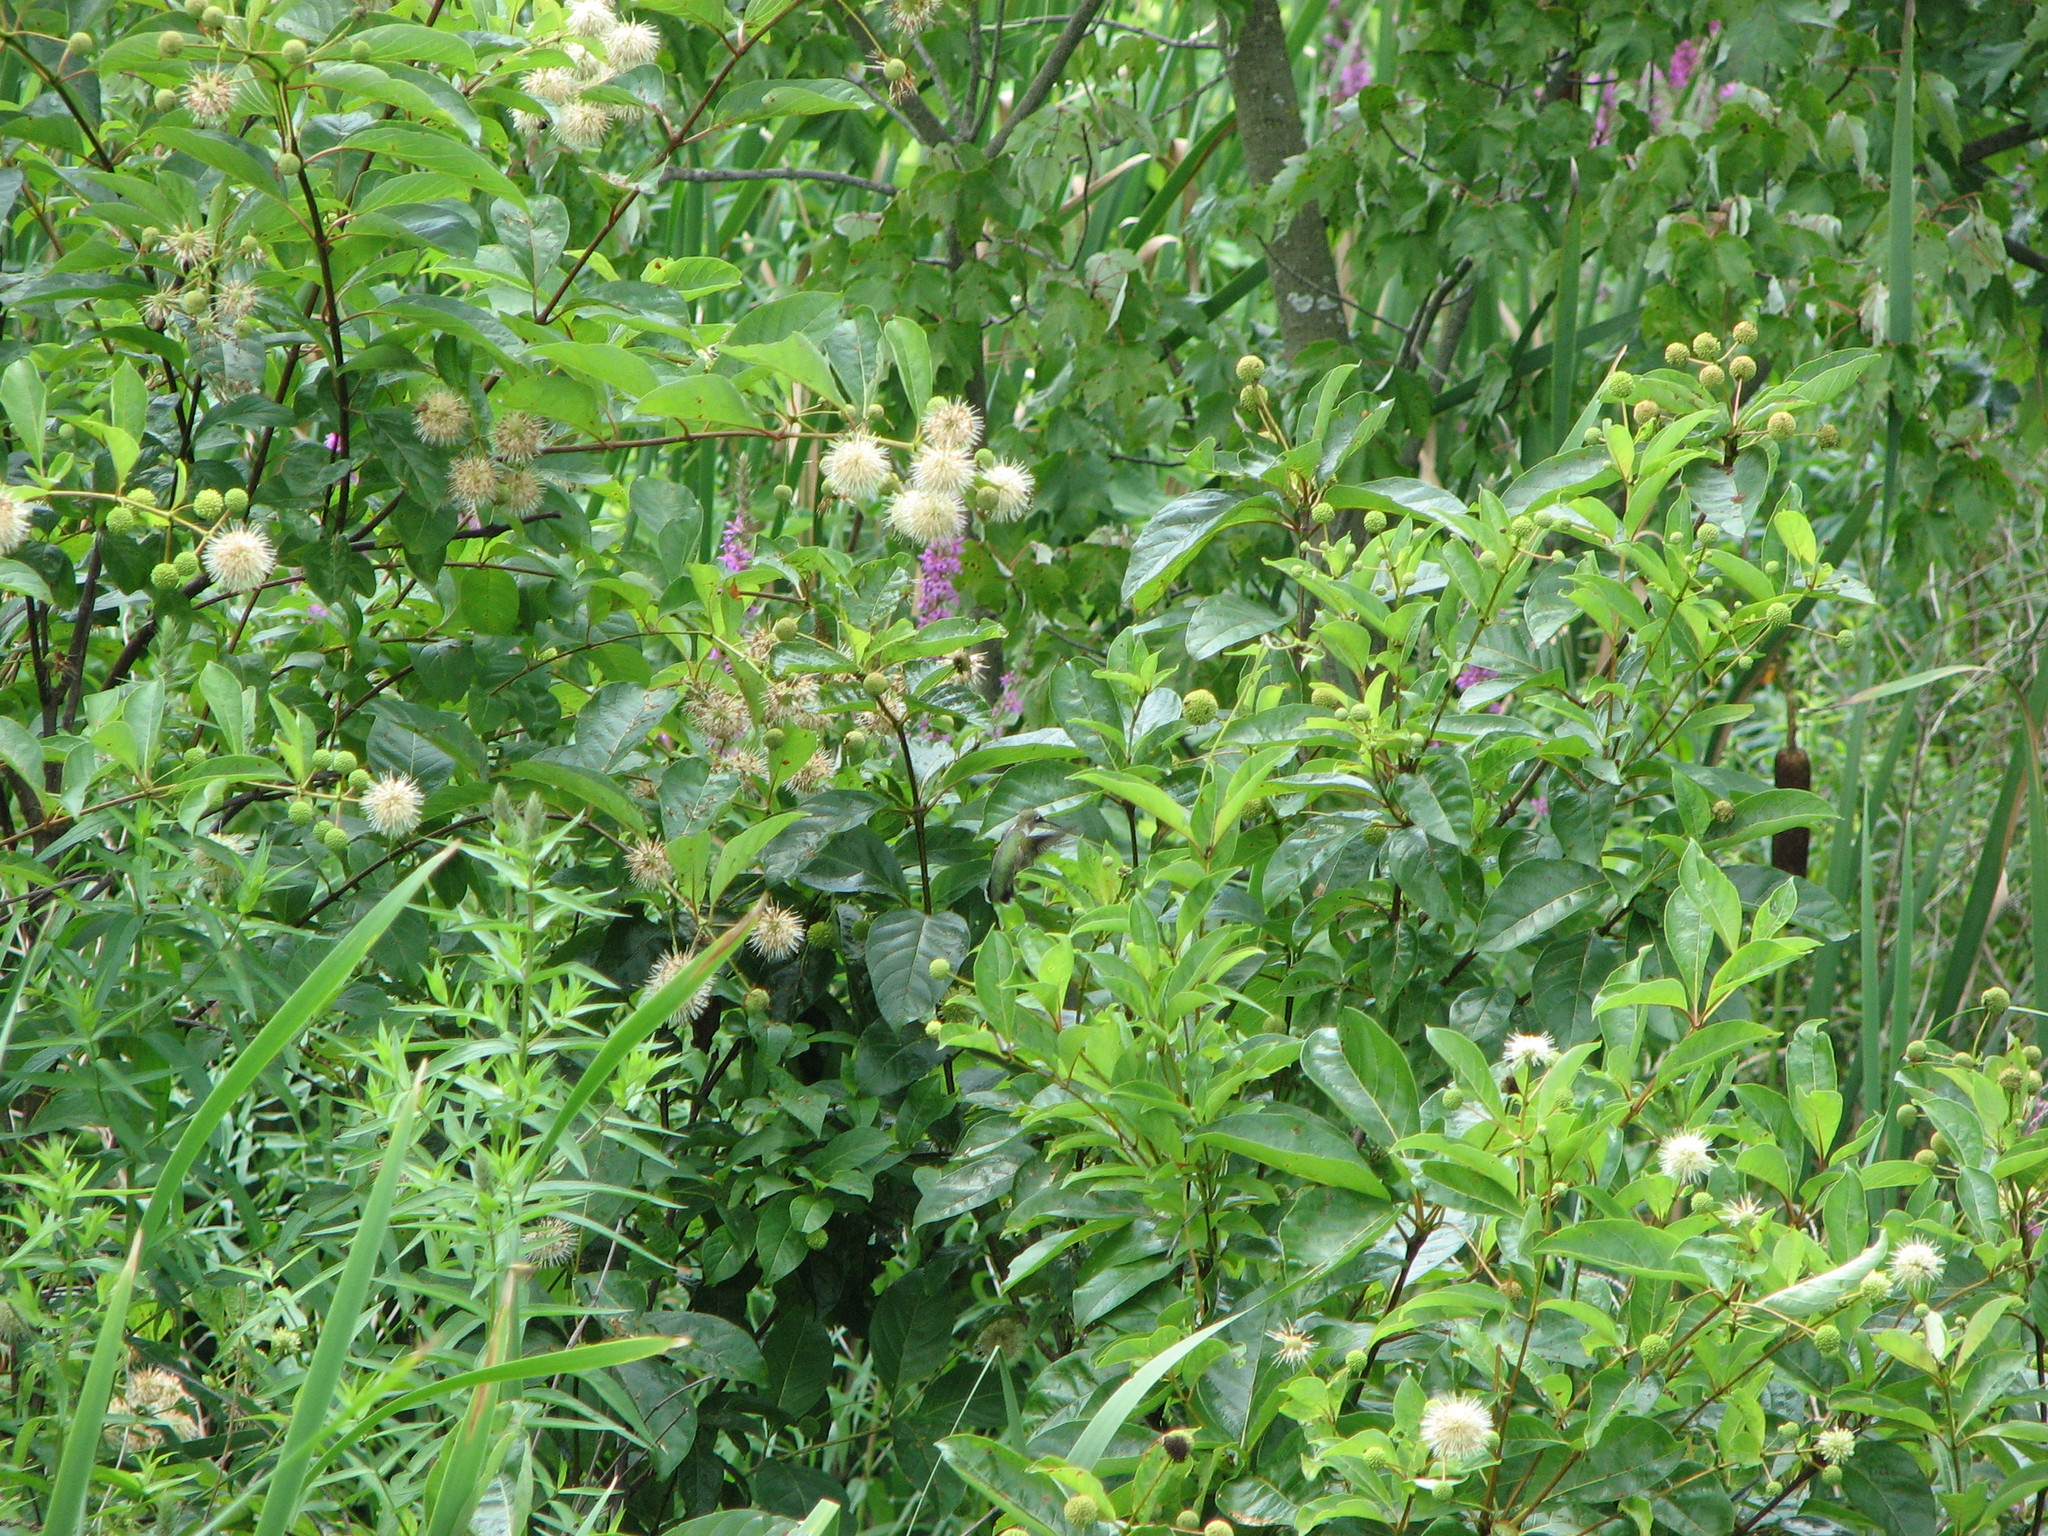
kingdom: Animalia
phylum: Chordata
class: Aves
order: Apodiformes
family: Trochilidae
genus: Archilochus
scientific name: Archilochus colubris
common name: Ruby-throated hummingbird
